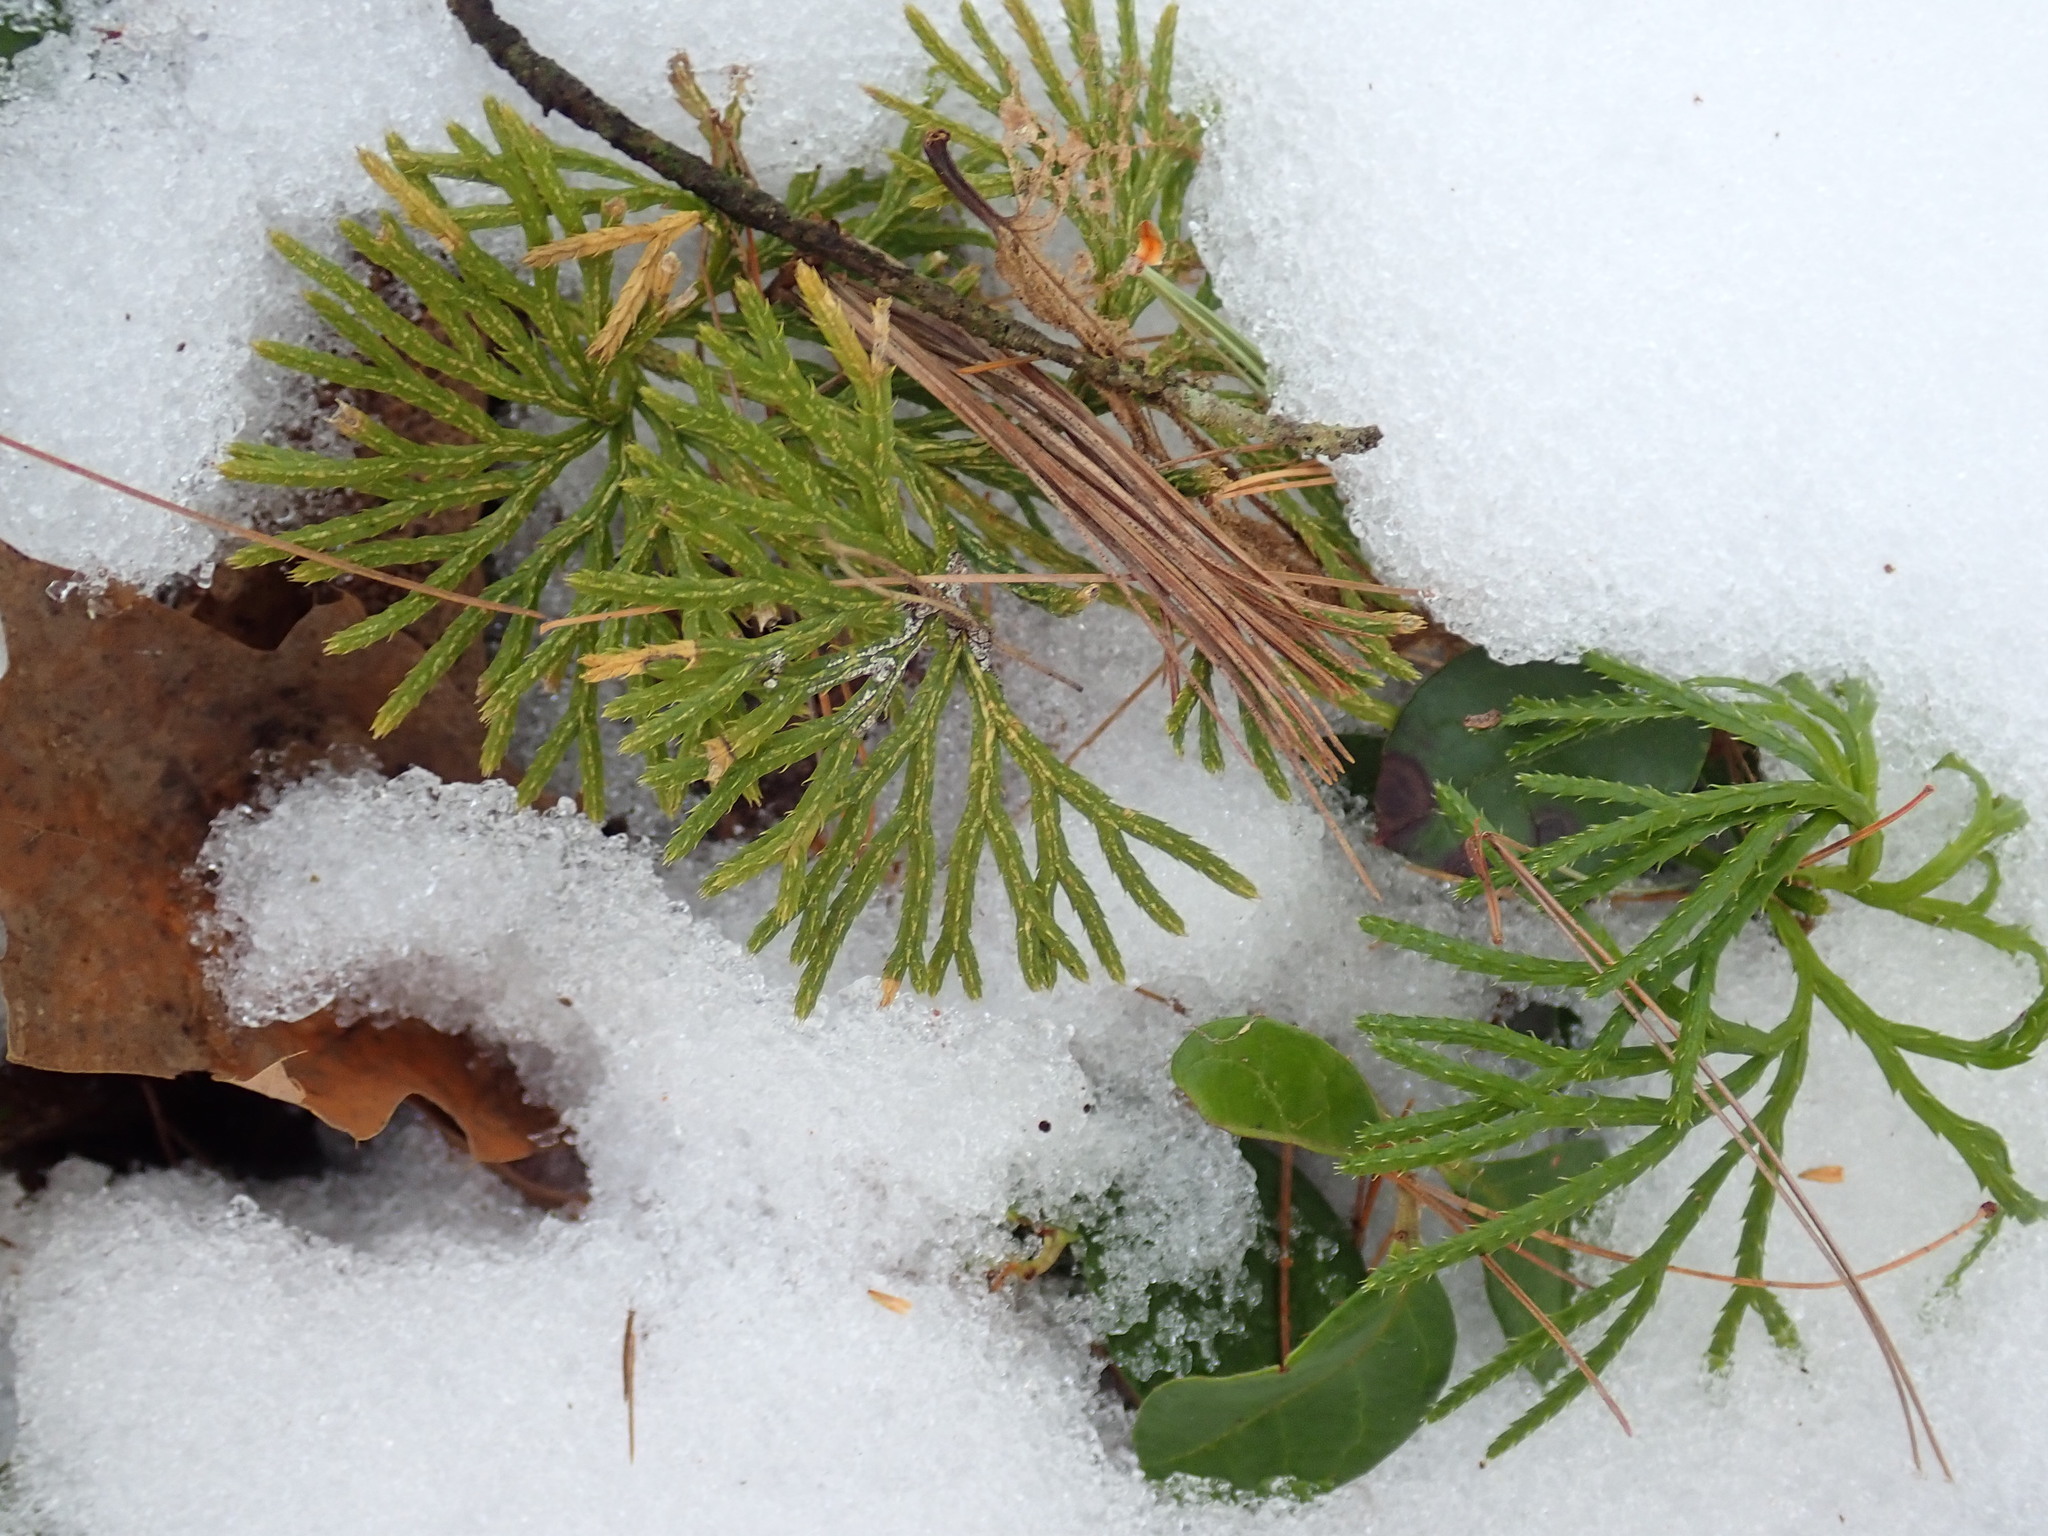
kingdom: Plantae
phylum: Tracheophyta
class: Lycopodiopsida
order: Lycopodiales
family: Lycopodiaceae
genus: Diphasiastrum
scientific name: Diphasiastrum digitatum
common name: Southern running-pine
